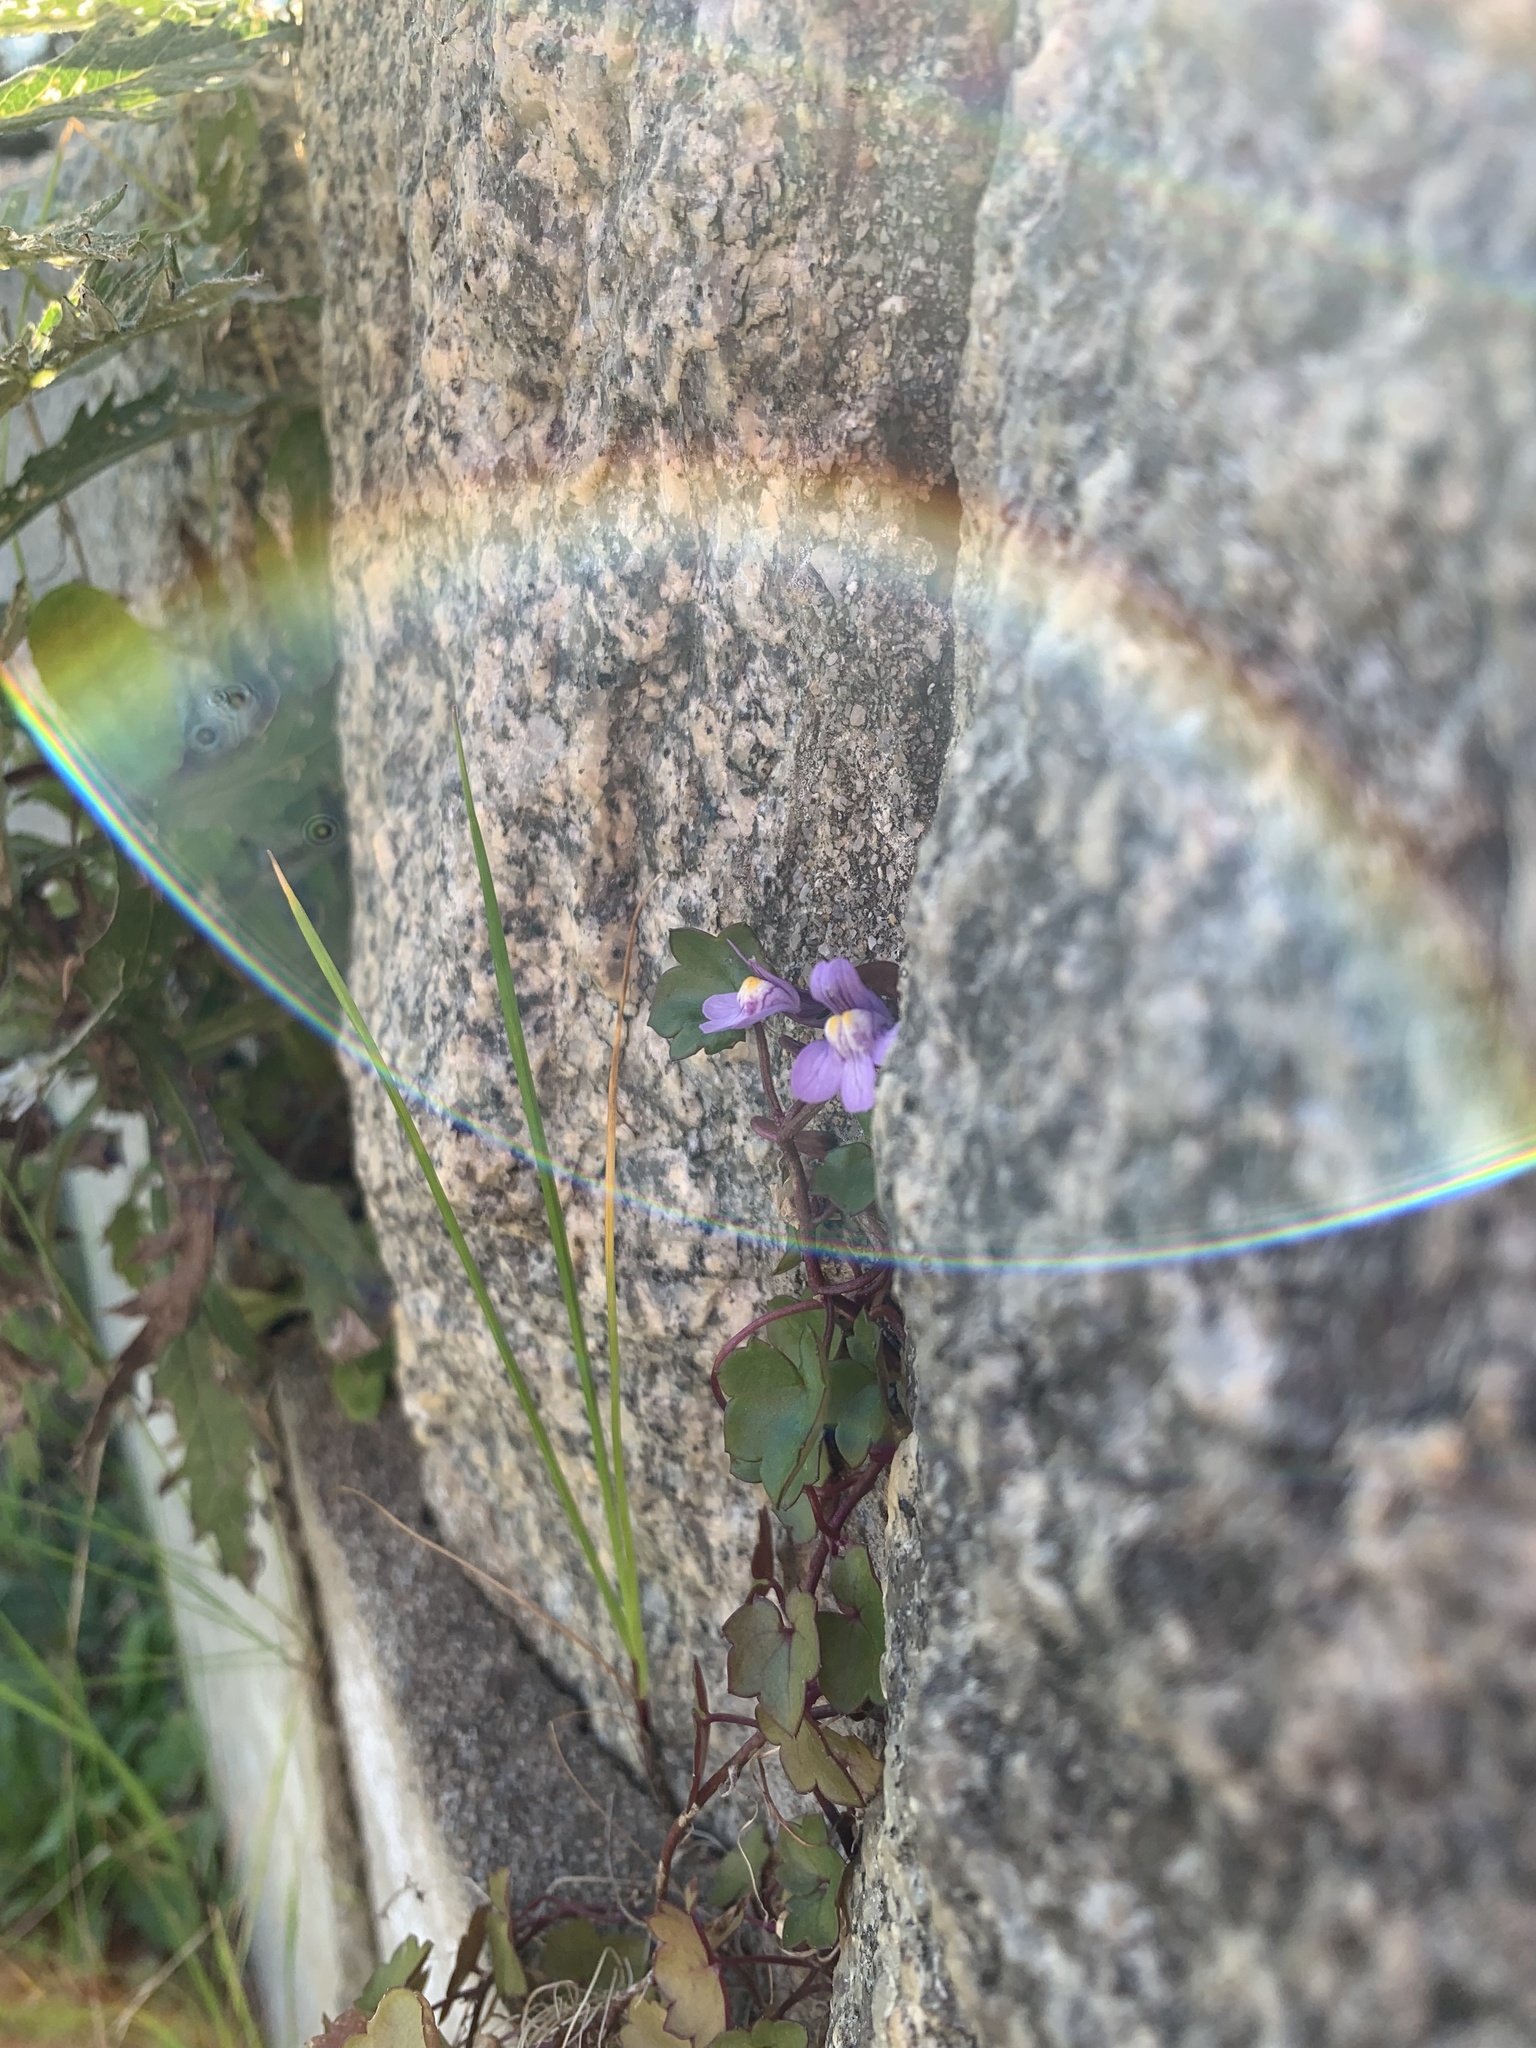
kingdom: Plantae
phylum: Tracheophyta
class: Magnoliopsida
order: Lamiales
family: Plantaginaceae
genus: Cymbalaria
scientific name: Cymbalaria muralis
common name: Ivy-leaved toadflax
